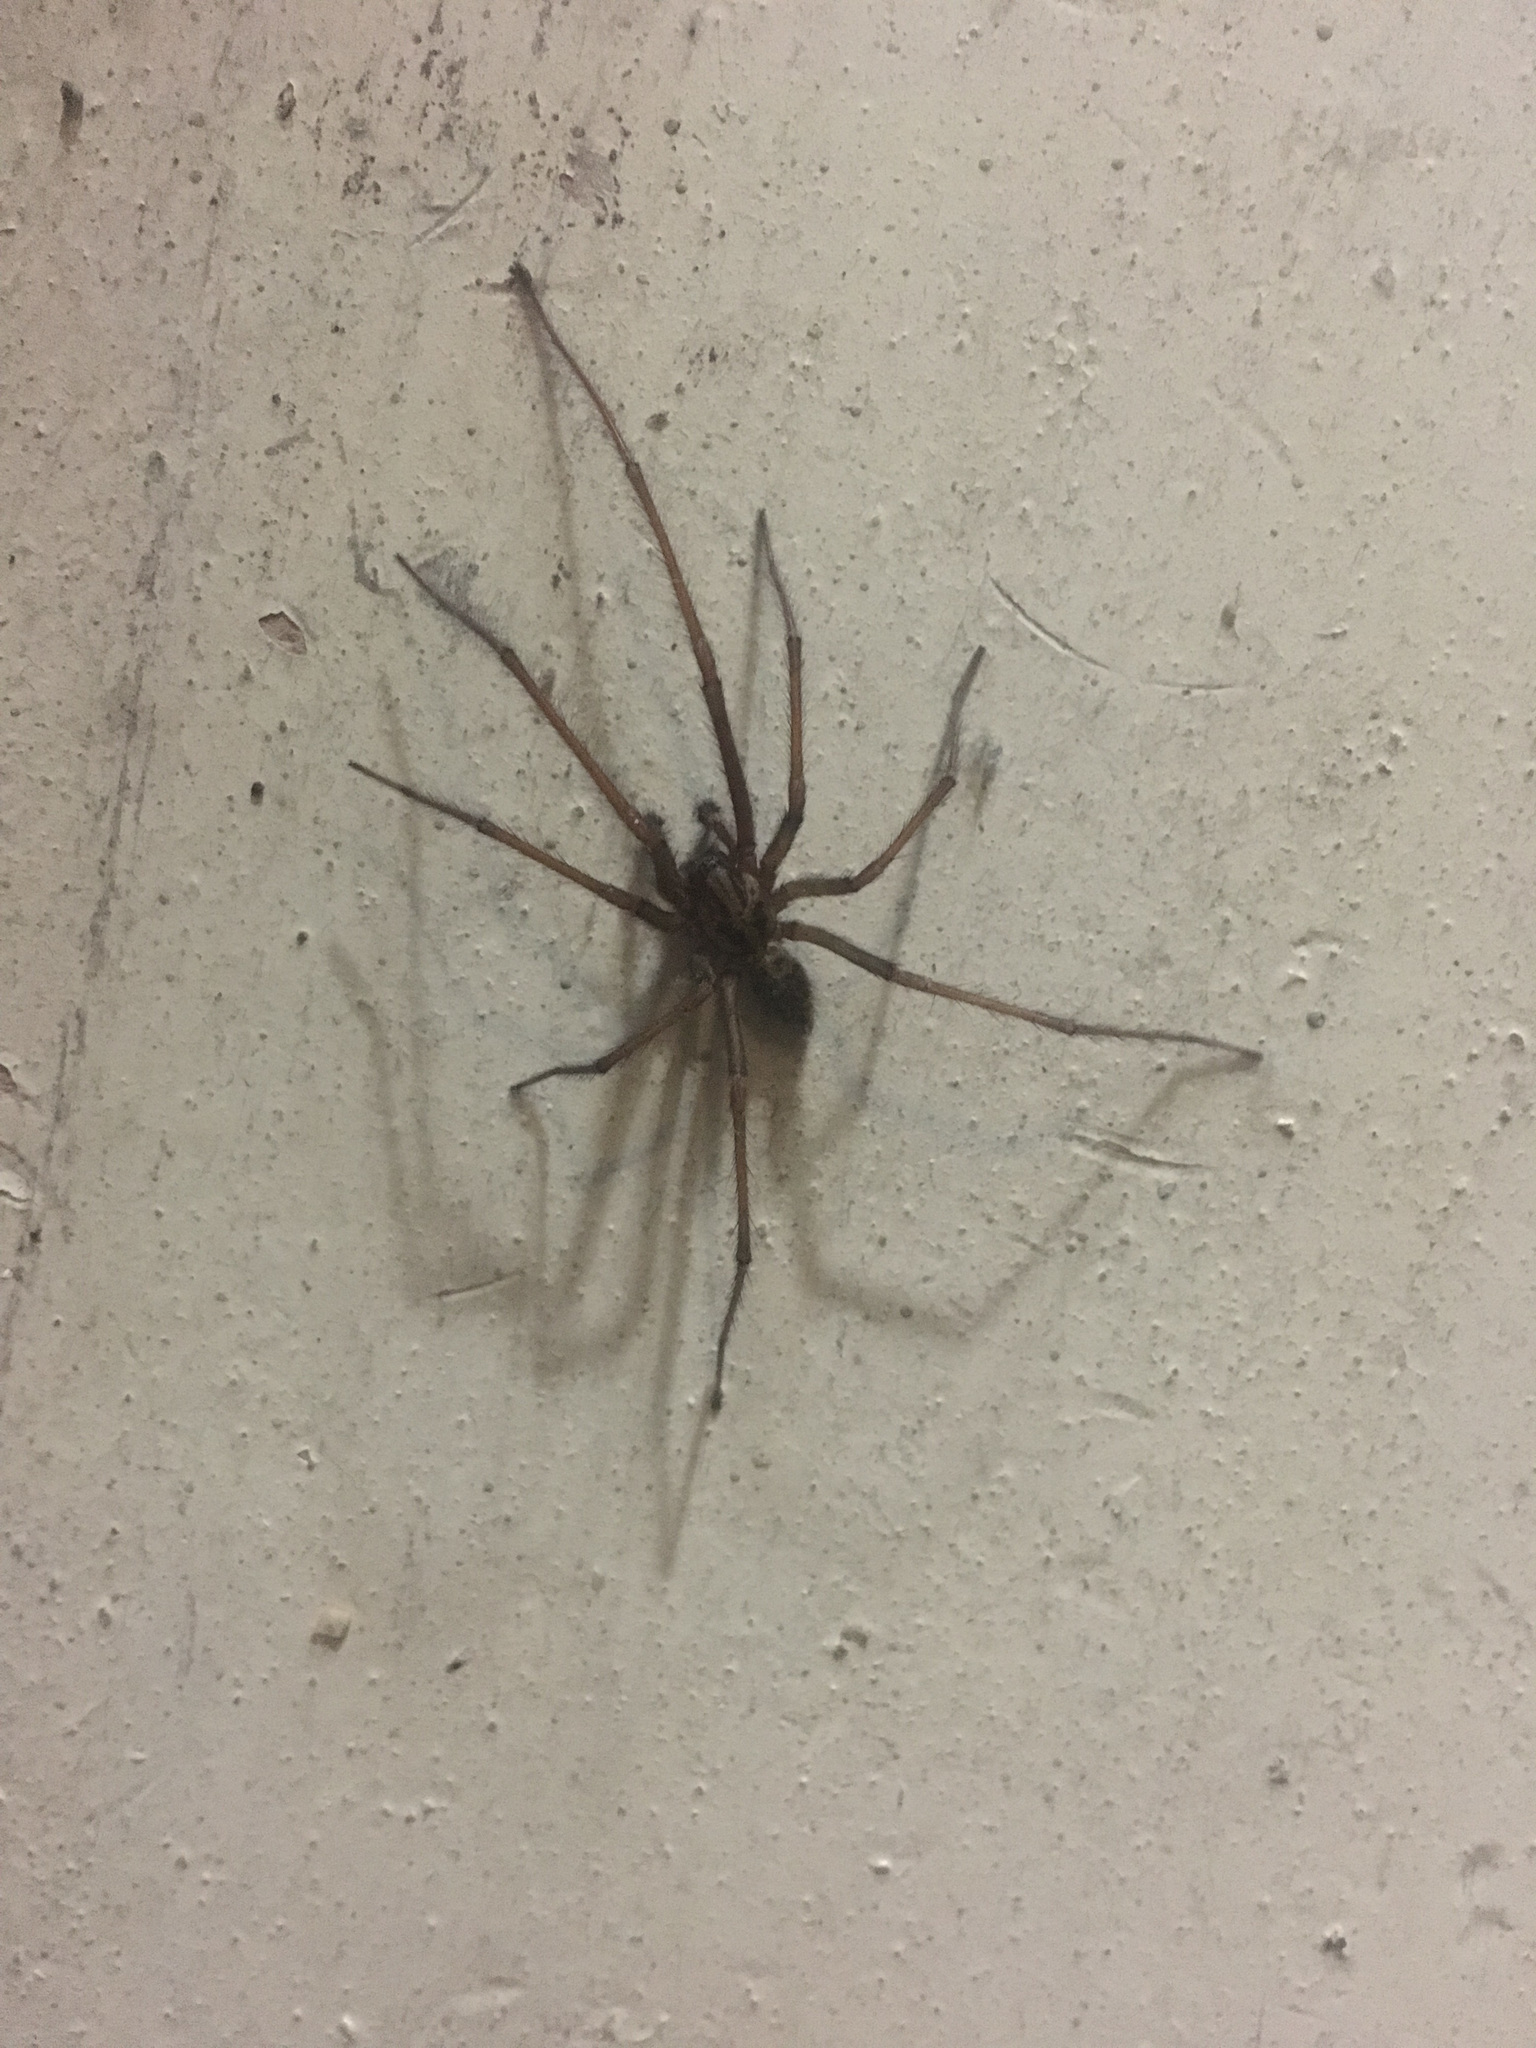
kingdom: Animalia
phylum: Arthropoda
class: Arachnida
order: Araneae
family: Agelenidae
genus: Eratigena
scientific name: Eratigena duellica
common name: Giant house spider
